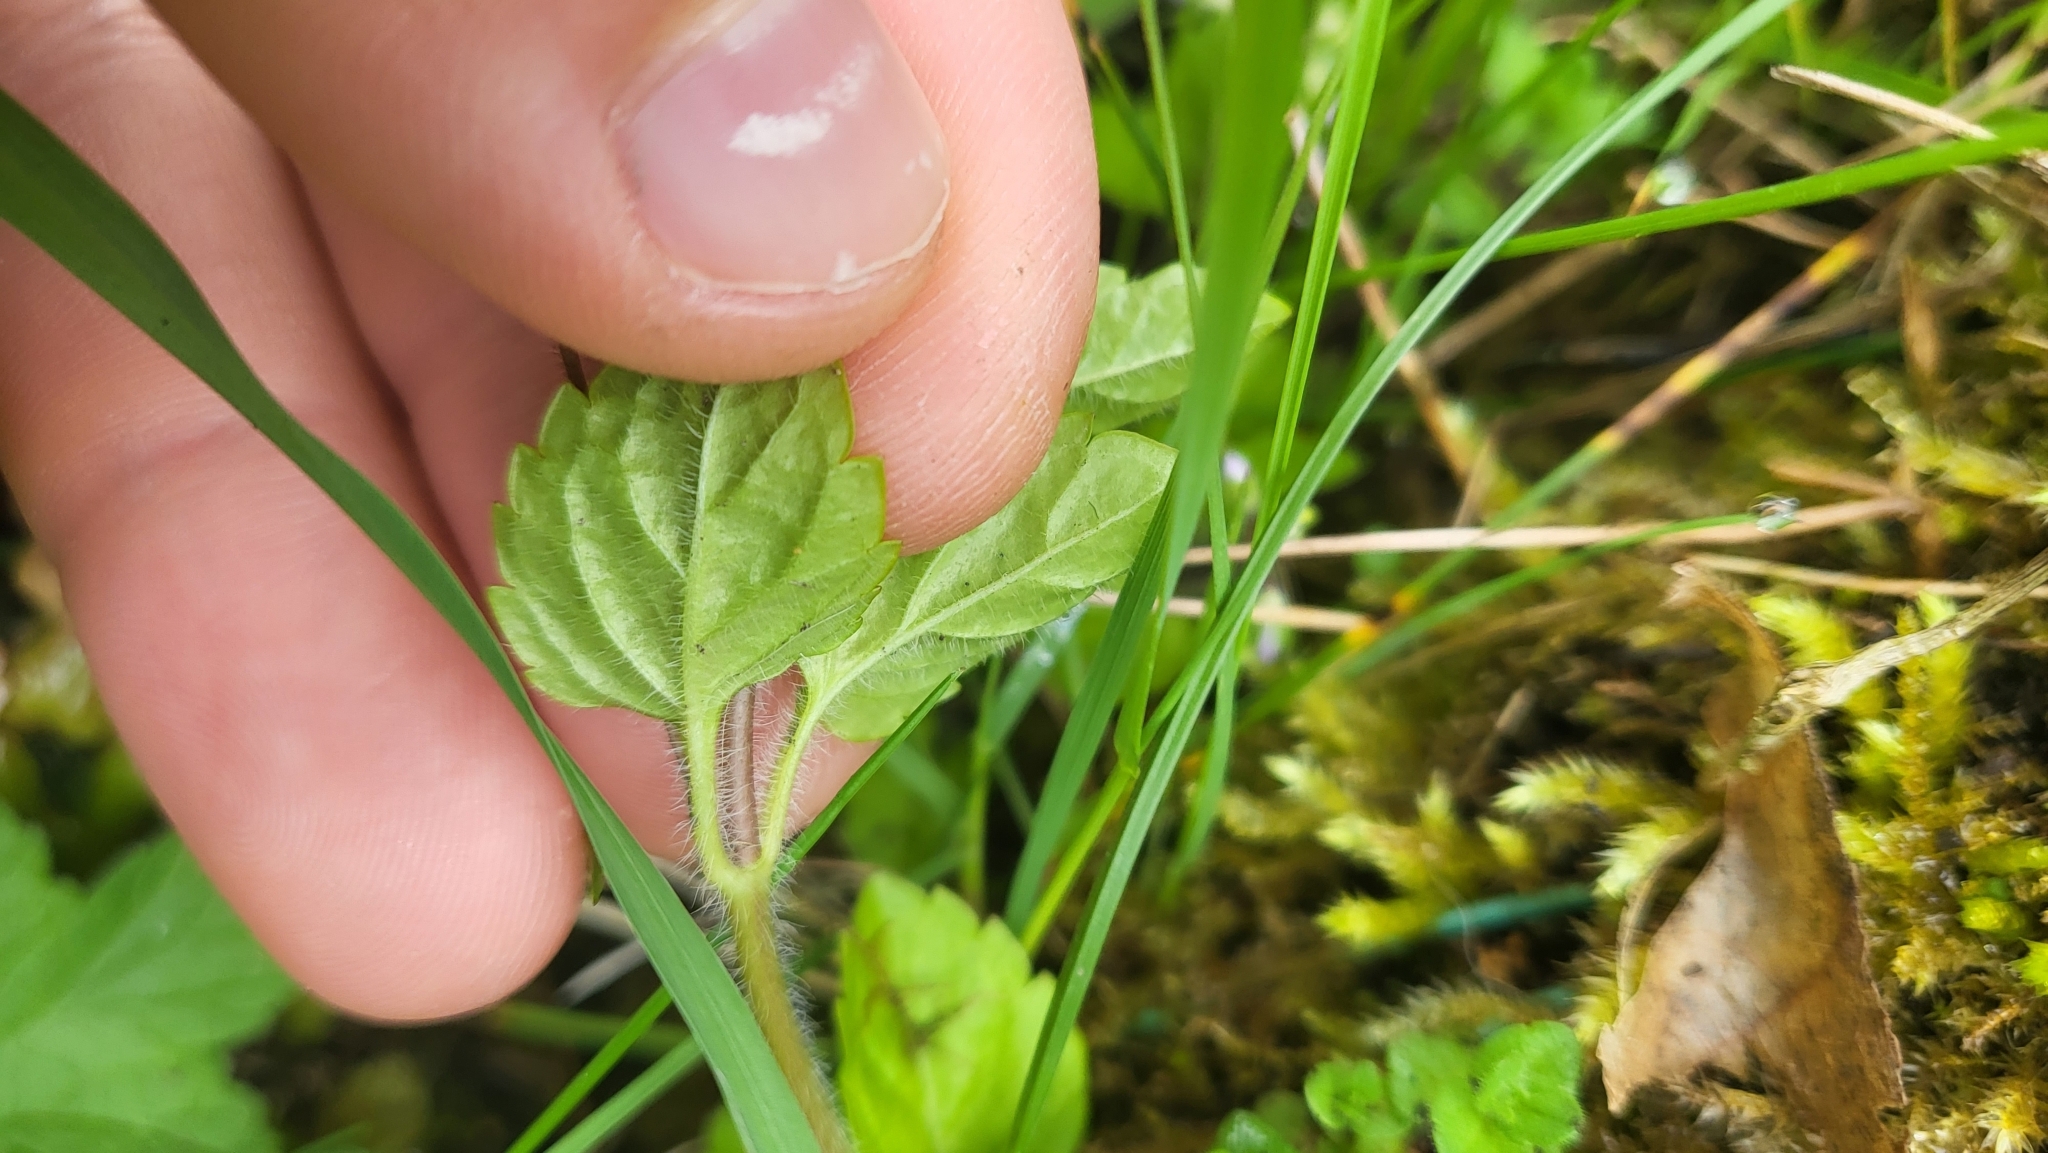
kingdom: Plantae
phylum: Tracheophyta
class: Magnoliopsida
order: Lamiales
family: Plantaginaceae
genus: Veronica
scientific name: Veronica montana
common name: Wood speedwell
